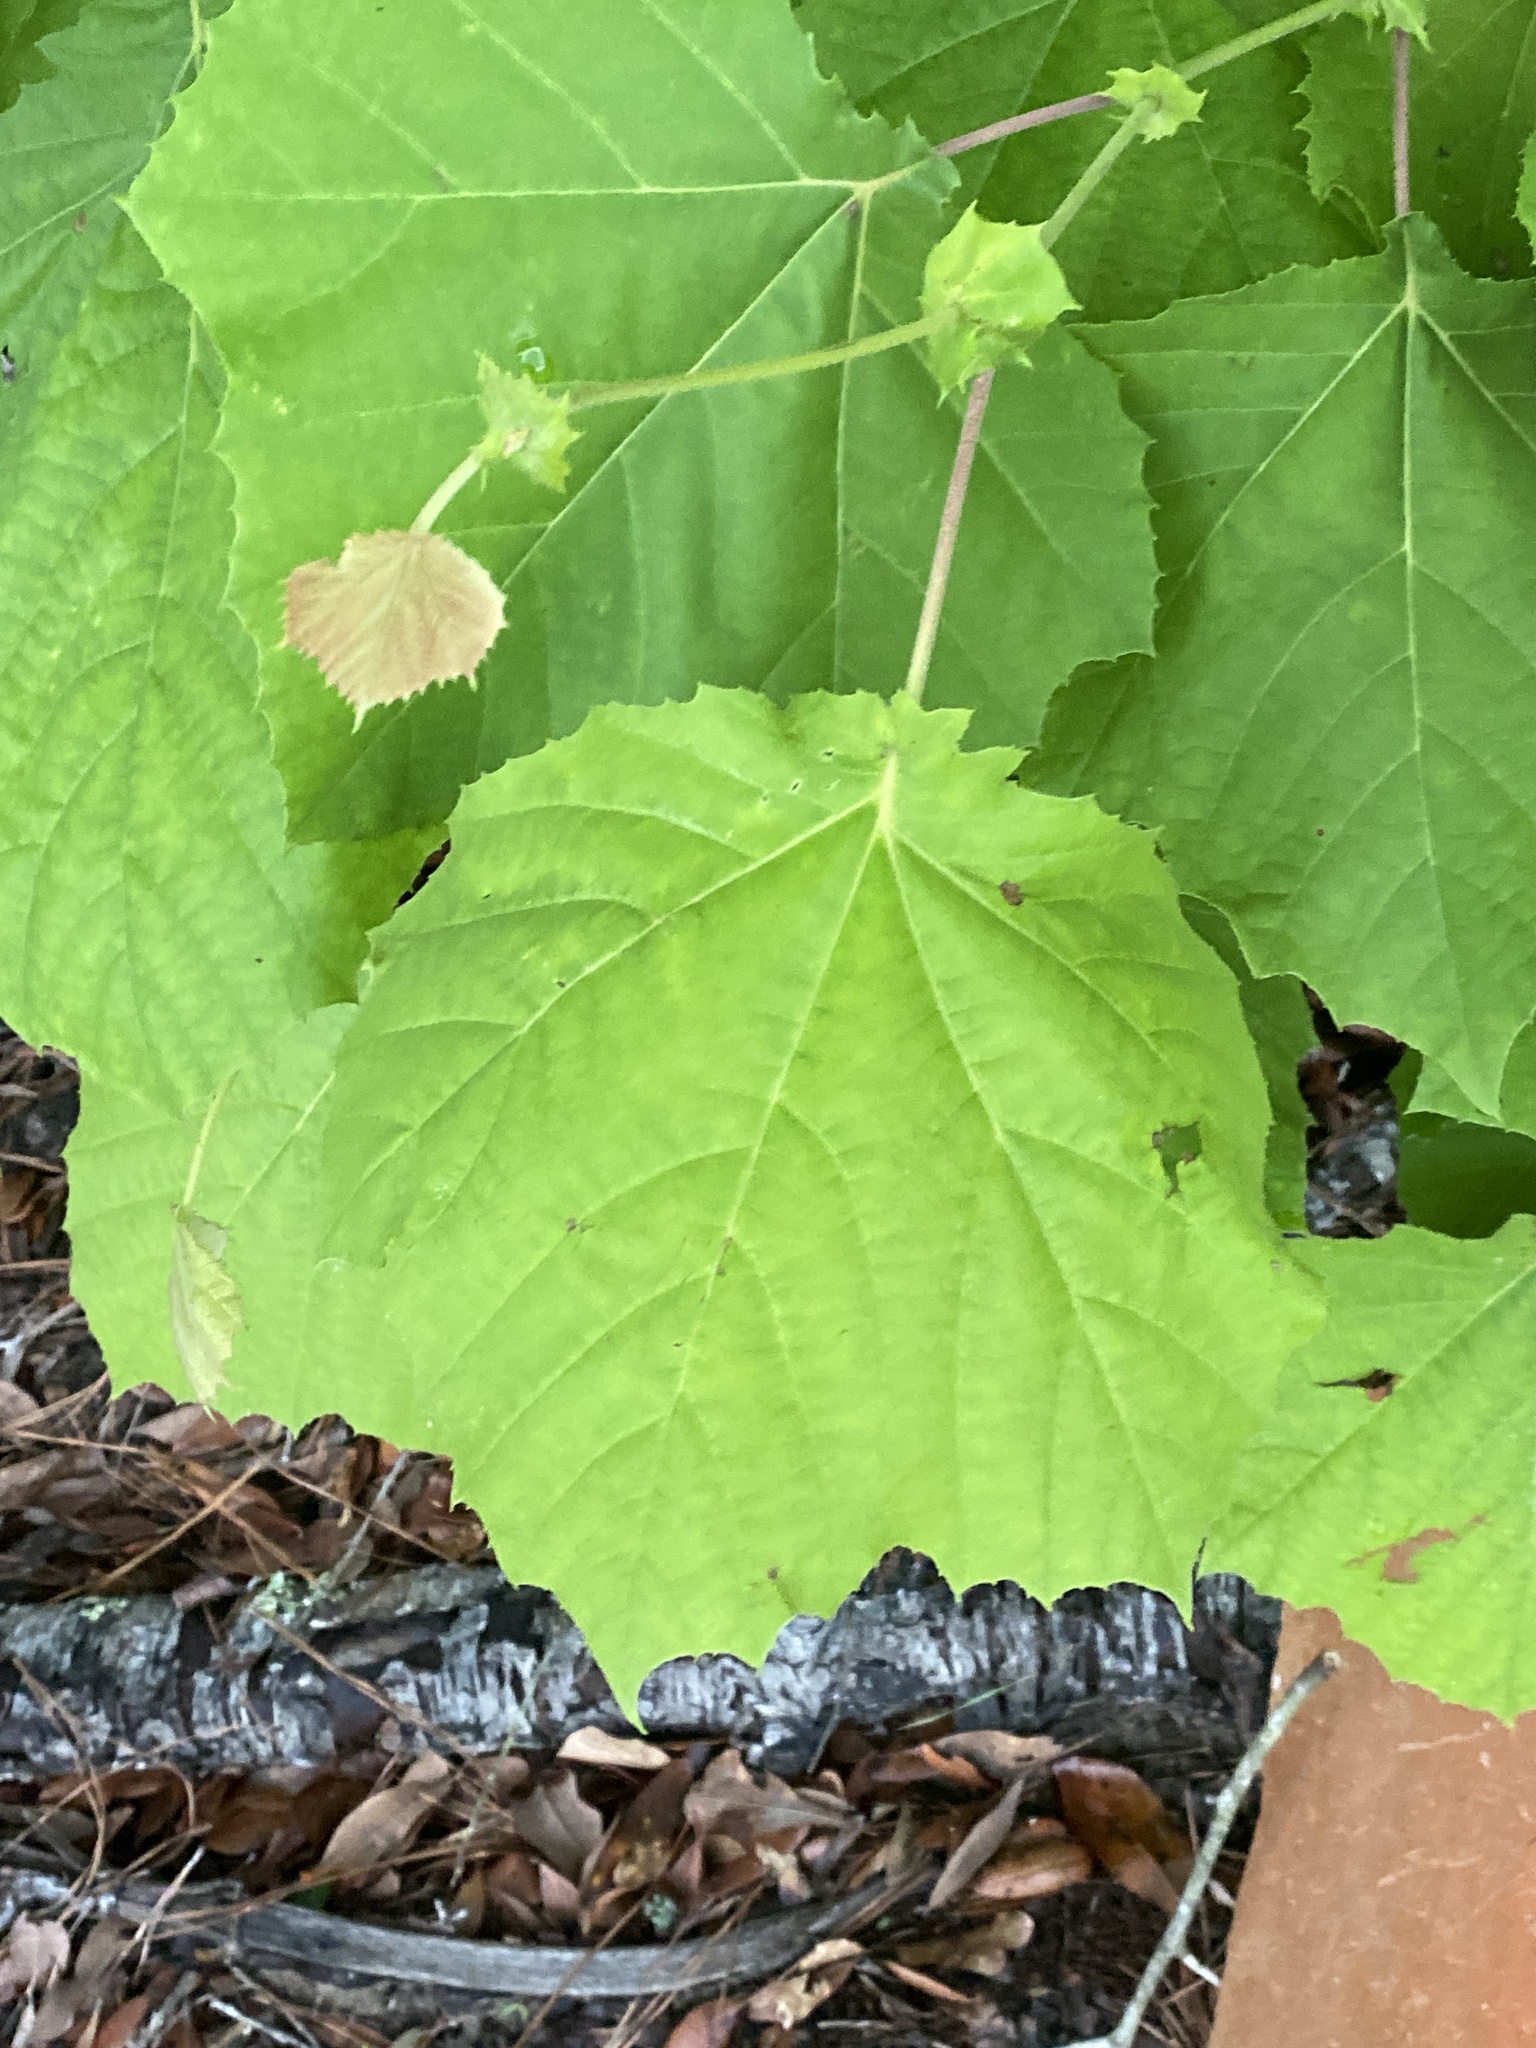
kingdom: Plantae
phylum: Tracheophyta
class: Magnoliopsida
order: Proteales
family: Platanaceae
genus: Platanus
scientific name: Platanus occidentalis
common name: American sycamore
